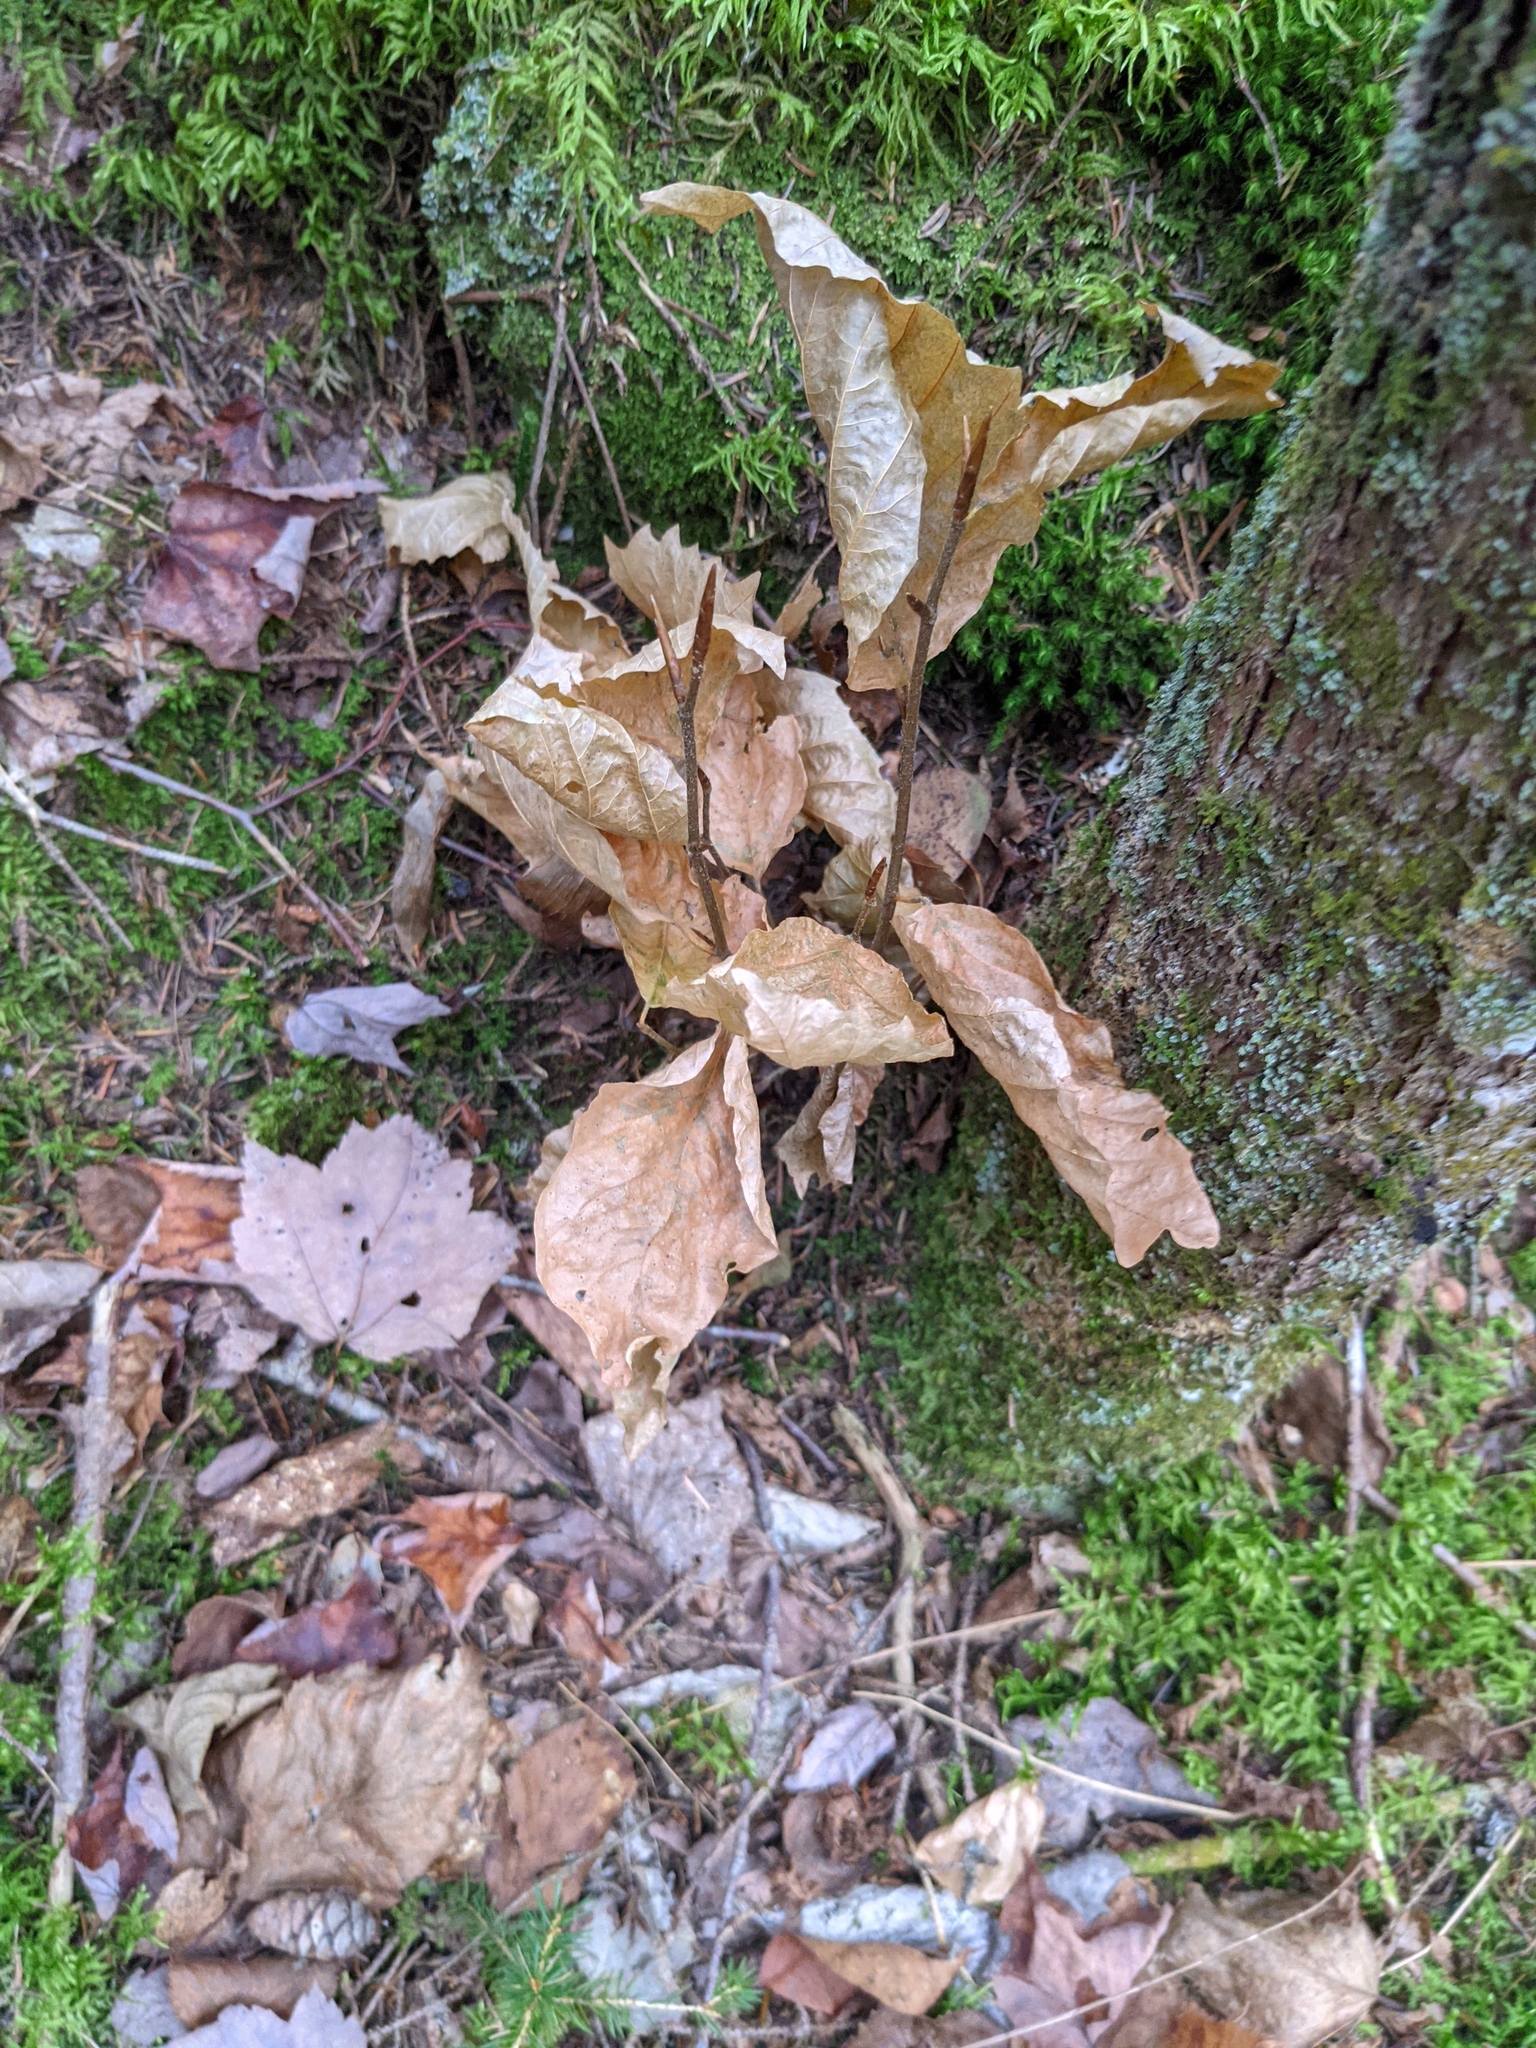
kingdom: Plantae
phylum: Tracheophyta
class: Magnoliopsida
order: Fagales
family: Fagaceae
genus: Fagus
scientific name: Fagus grandifolia
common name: American beech
